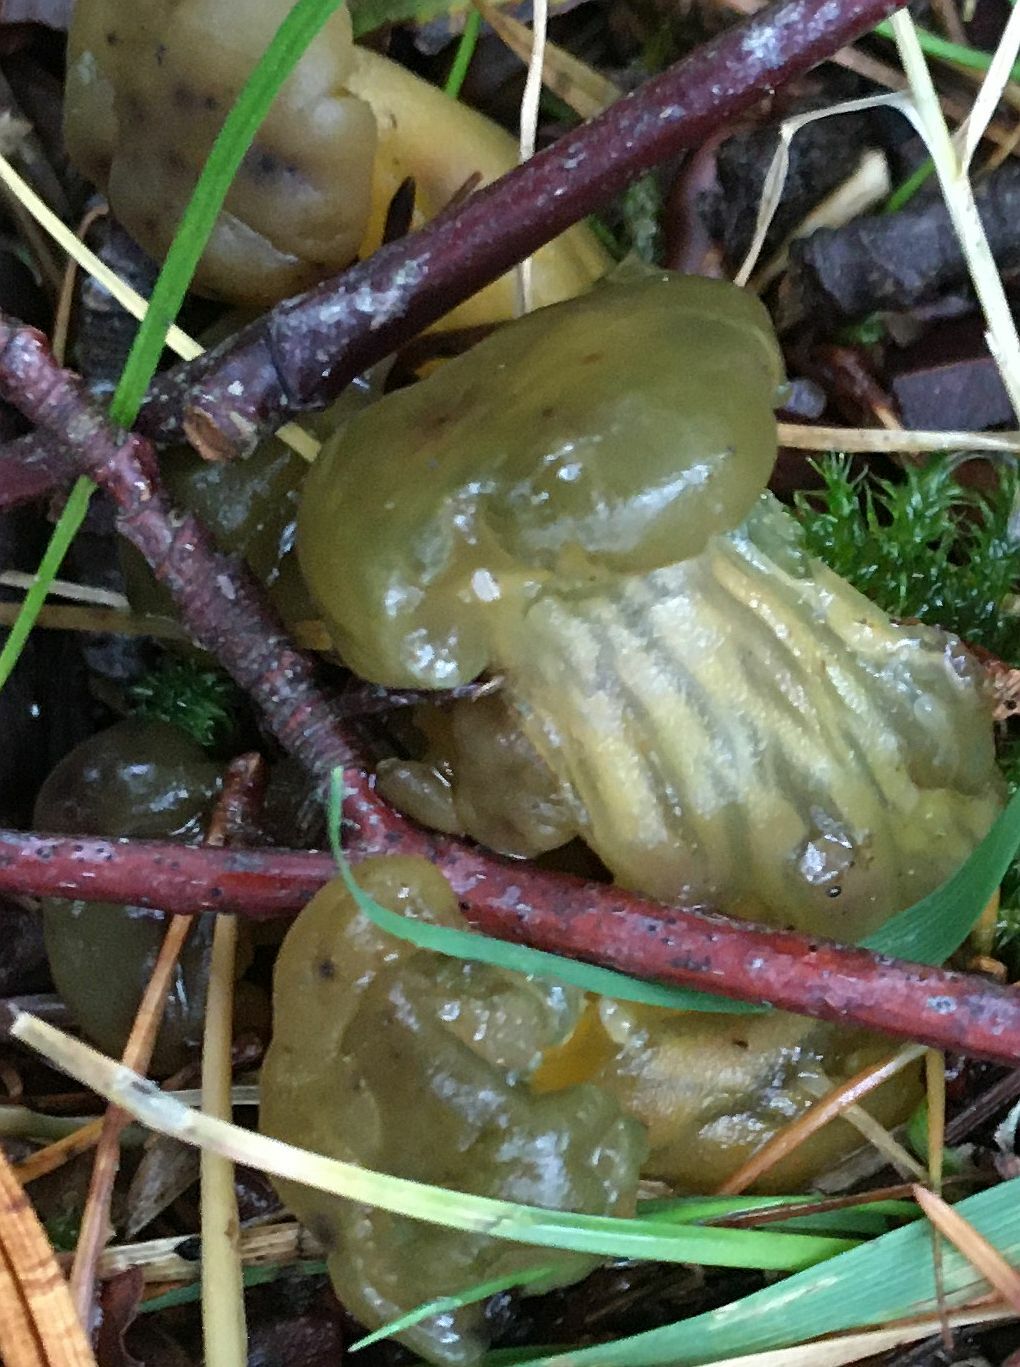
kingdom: Fungi
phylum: Ascomycota
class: Leotiomycetes
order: Leotiales
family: Leotiaceae
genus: Leotia
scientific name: Leotia lubrica
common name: Jellybaby
